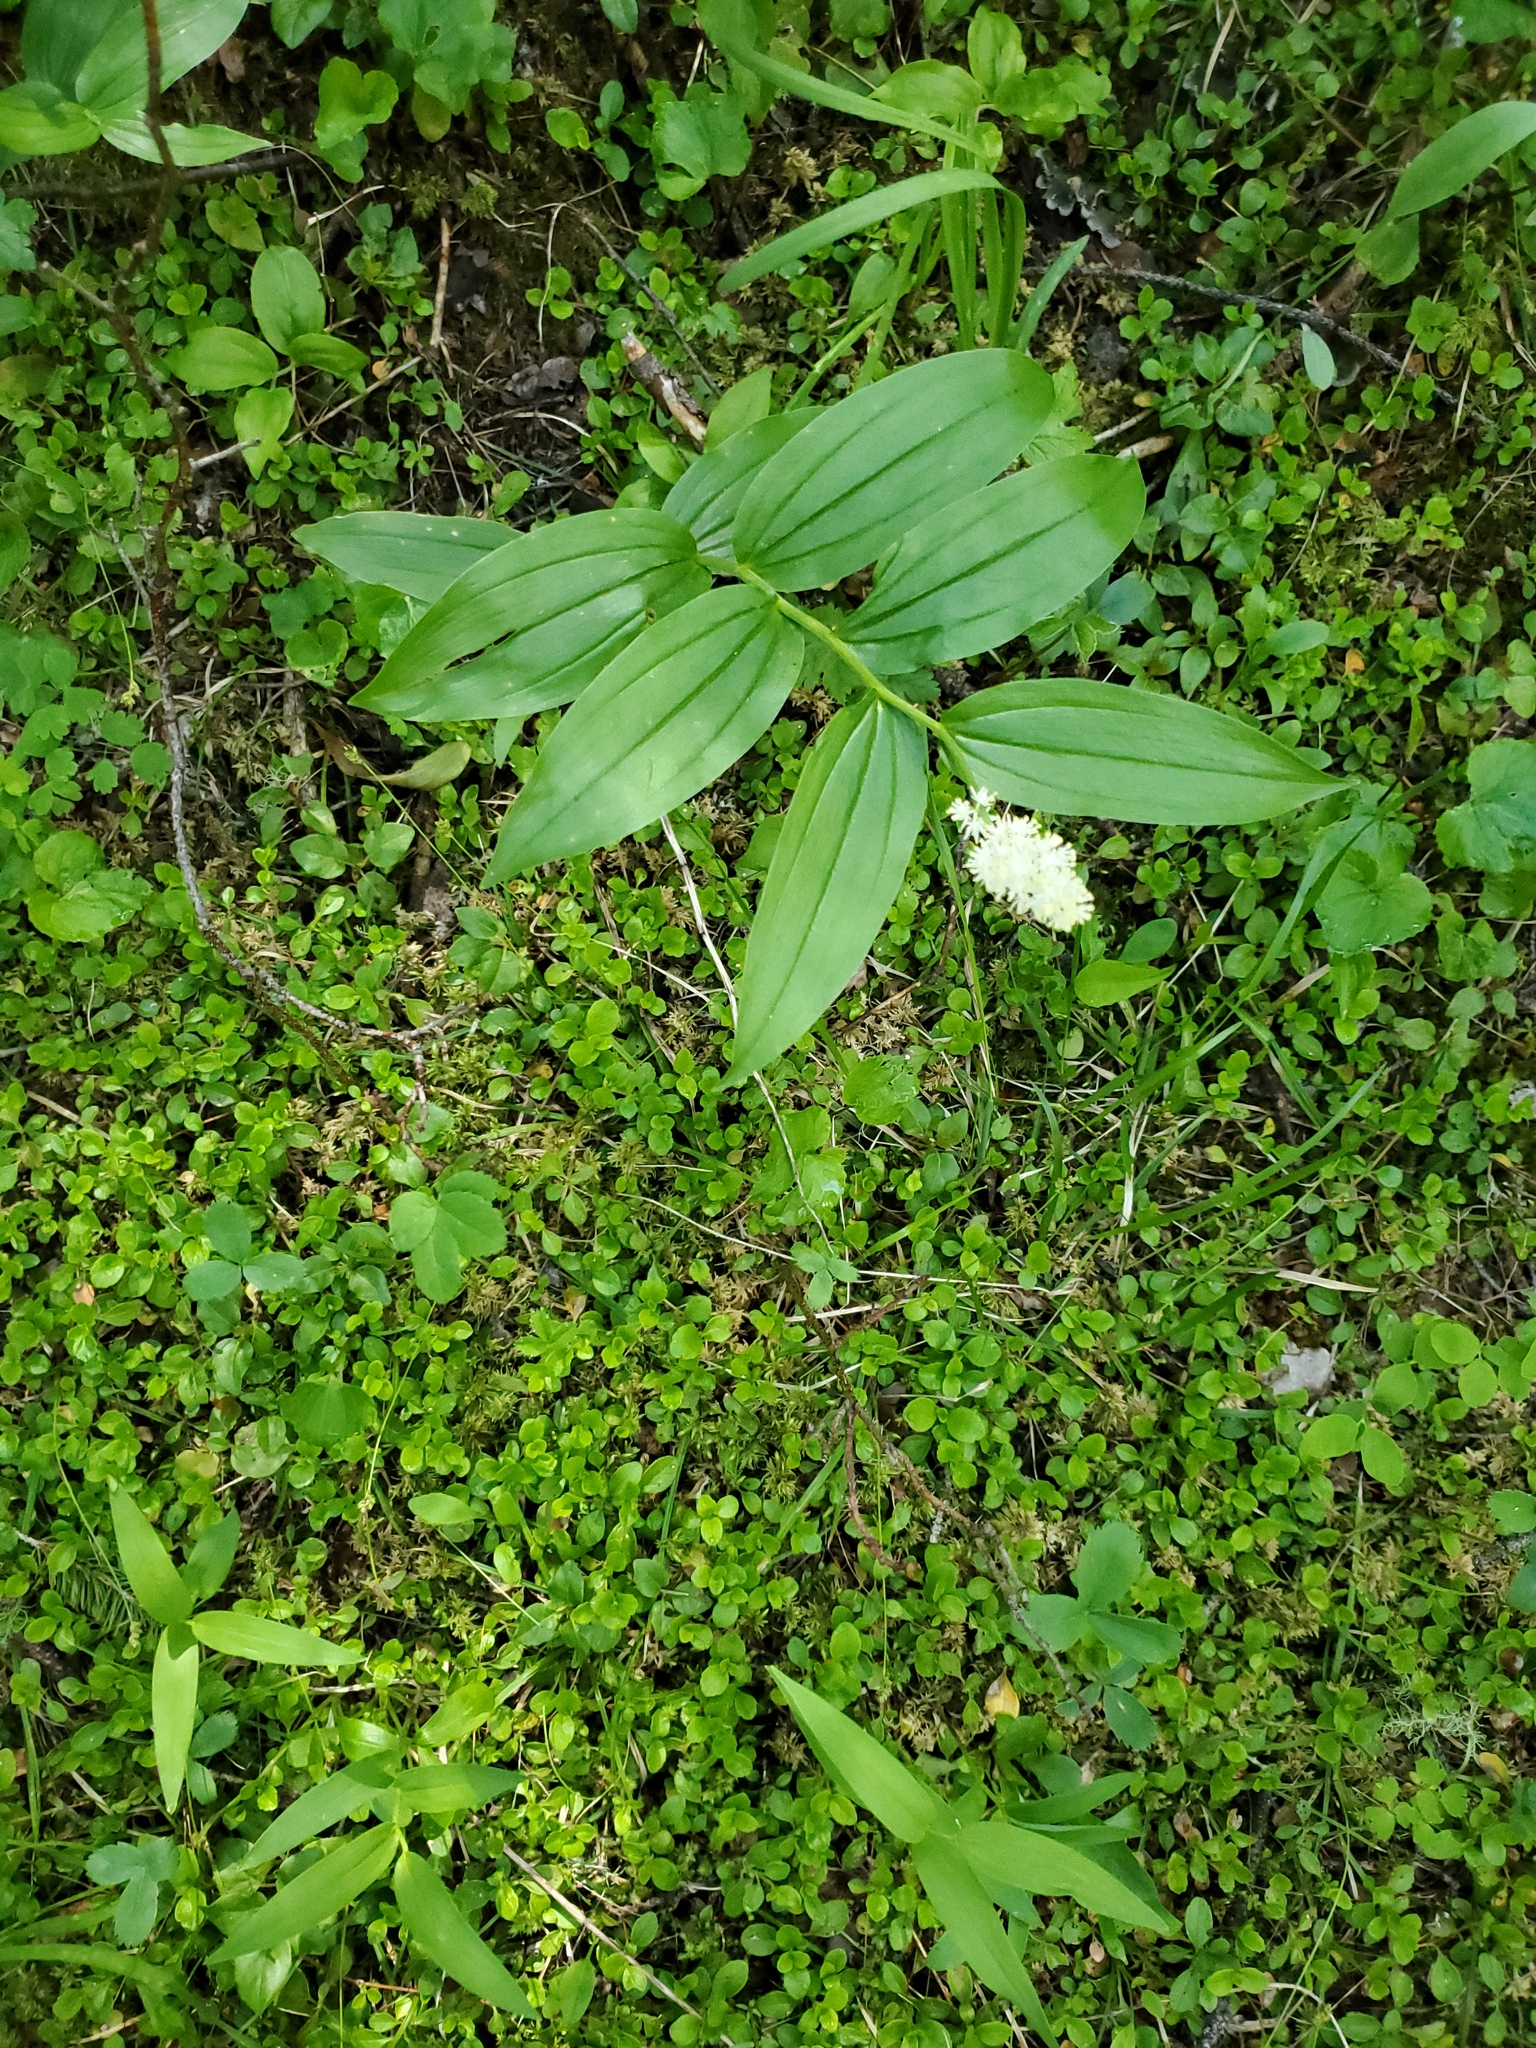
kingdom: Plantae
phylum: Tracheophyta
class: Liliopsida
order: Asparagales
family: Asparagaceae
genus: Maianthemum
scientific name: Maianthemum racemosum
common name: False spikenard
